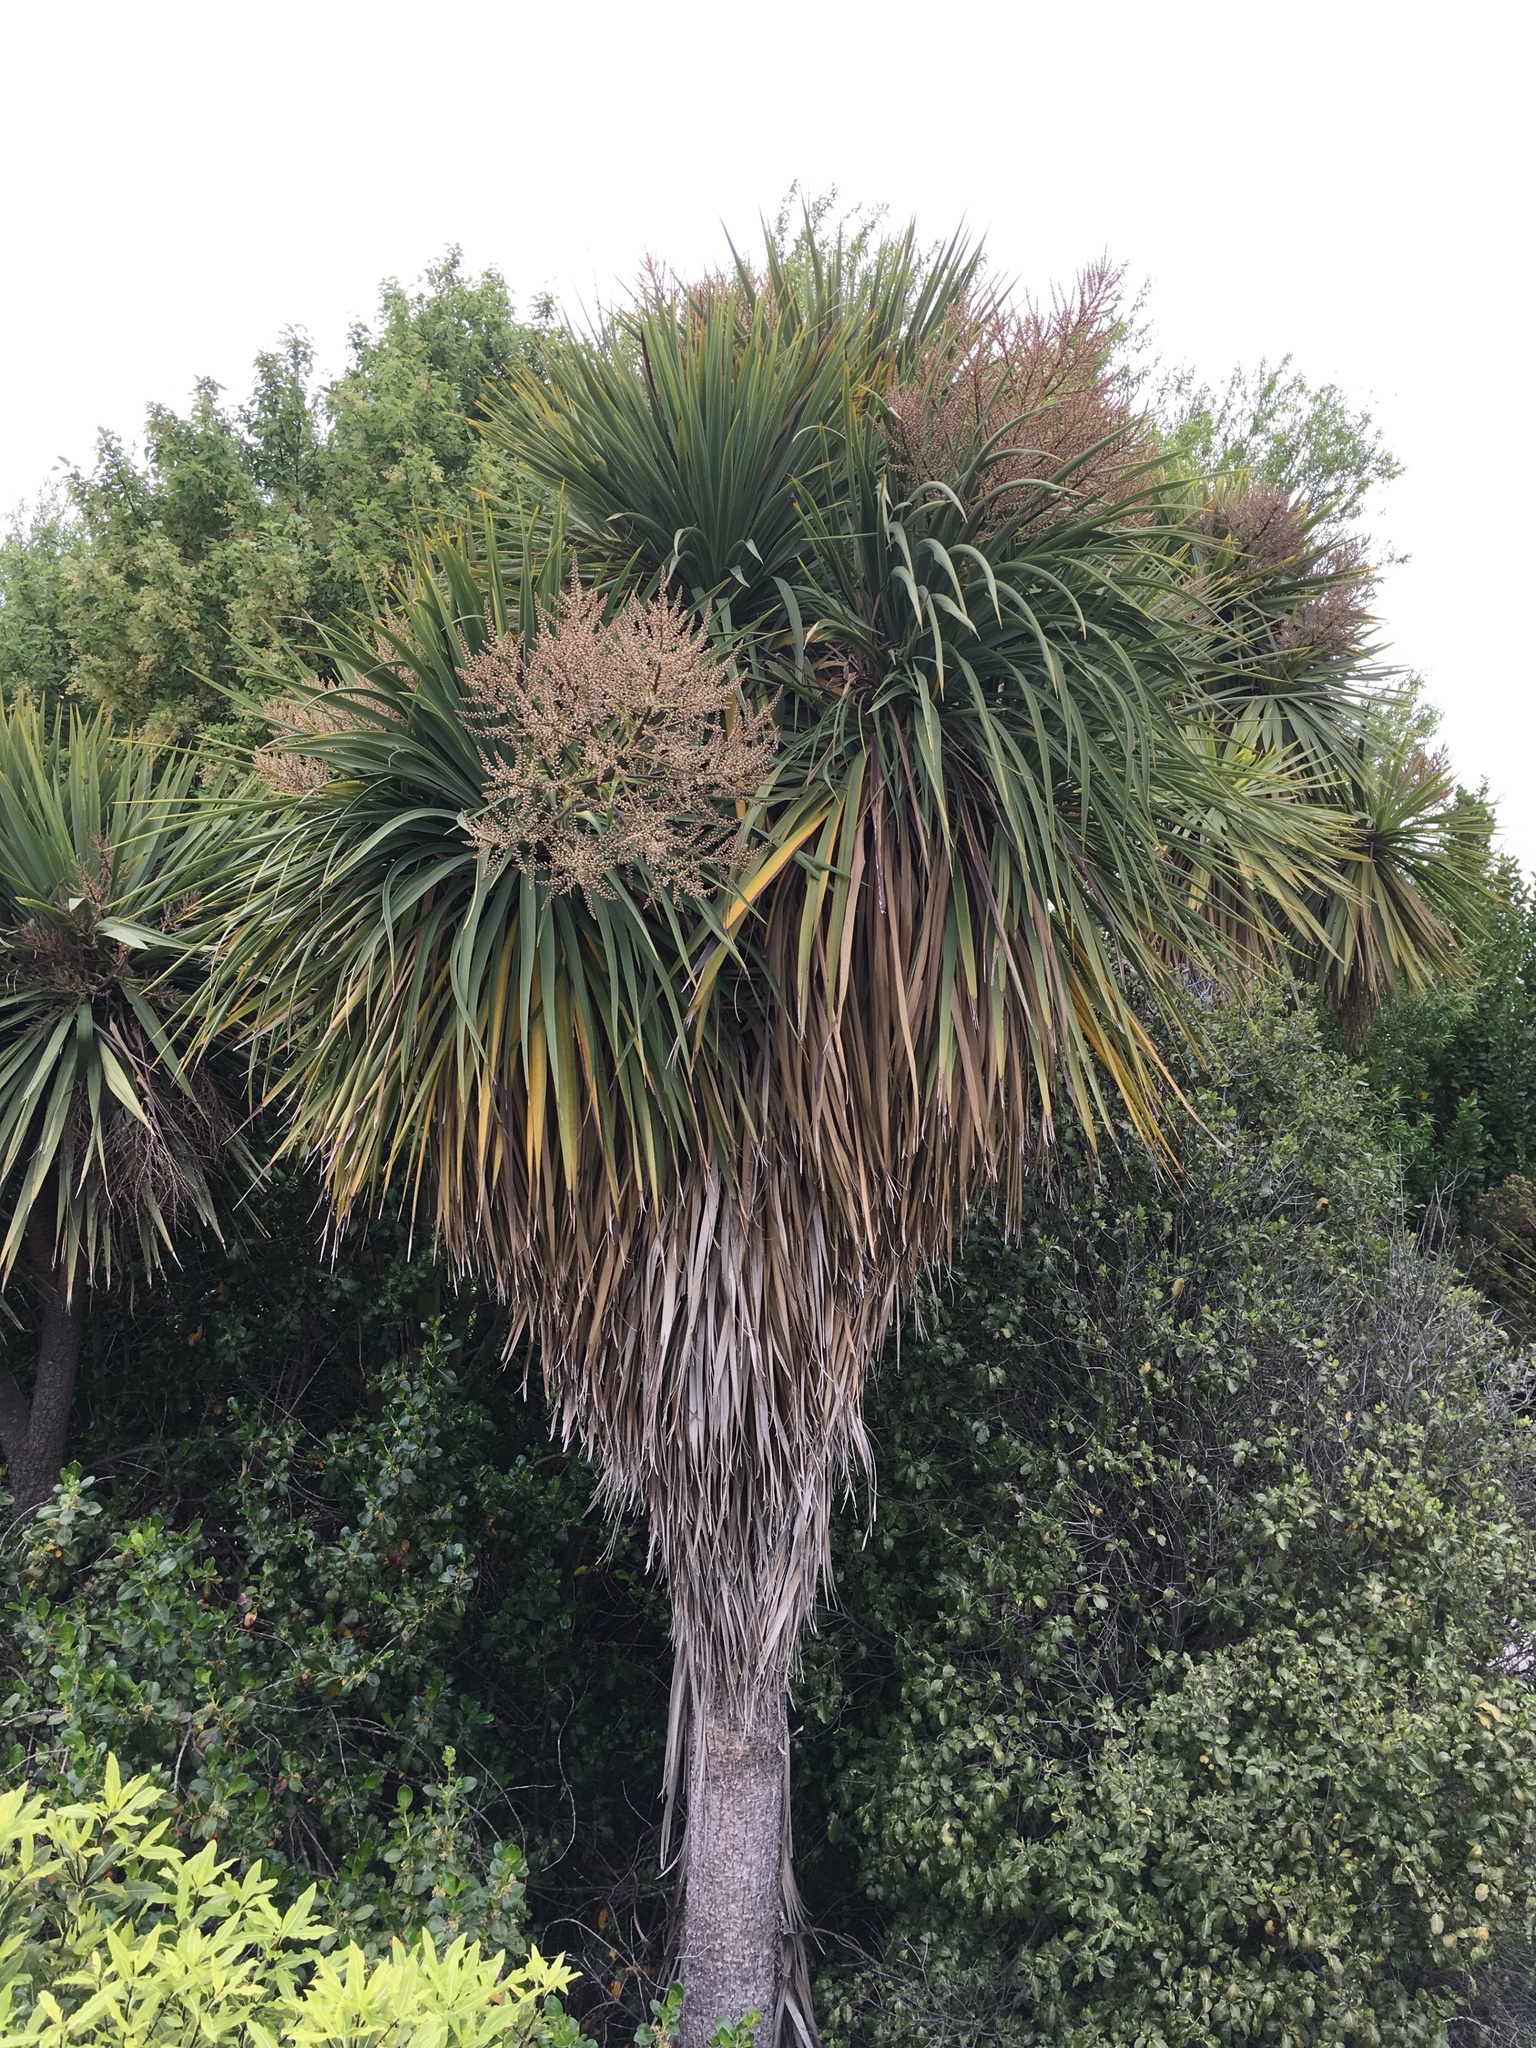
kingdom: Plantae
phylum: Tracheophyta
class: Liliopsida
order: Asparagales
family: Asparagaceae
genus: Cordyline
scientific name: Cordyline australis
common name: Cabbage-palm
